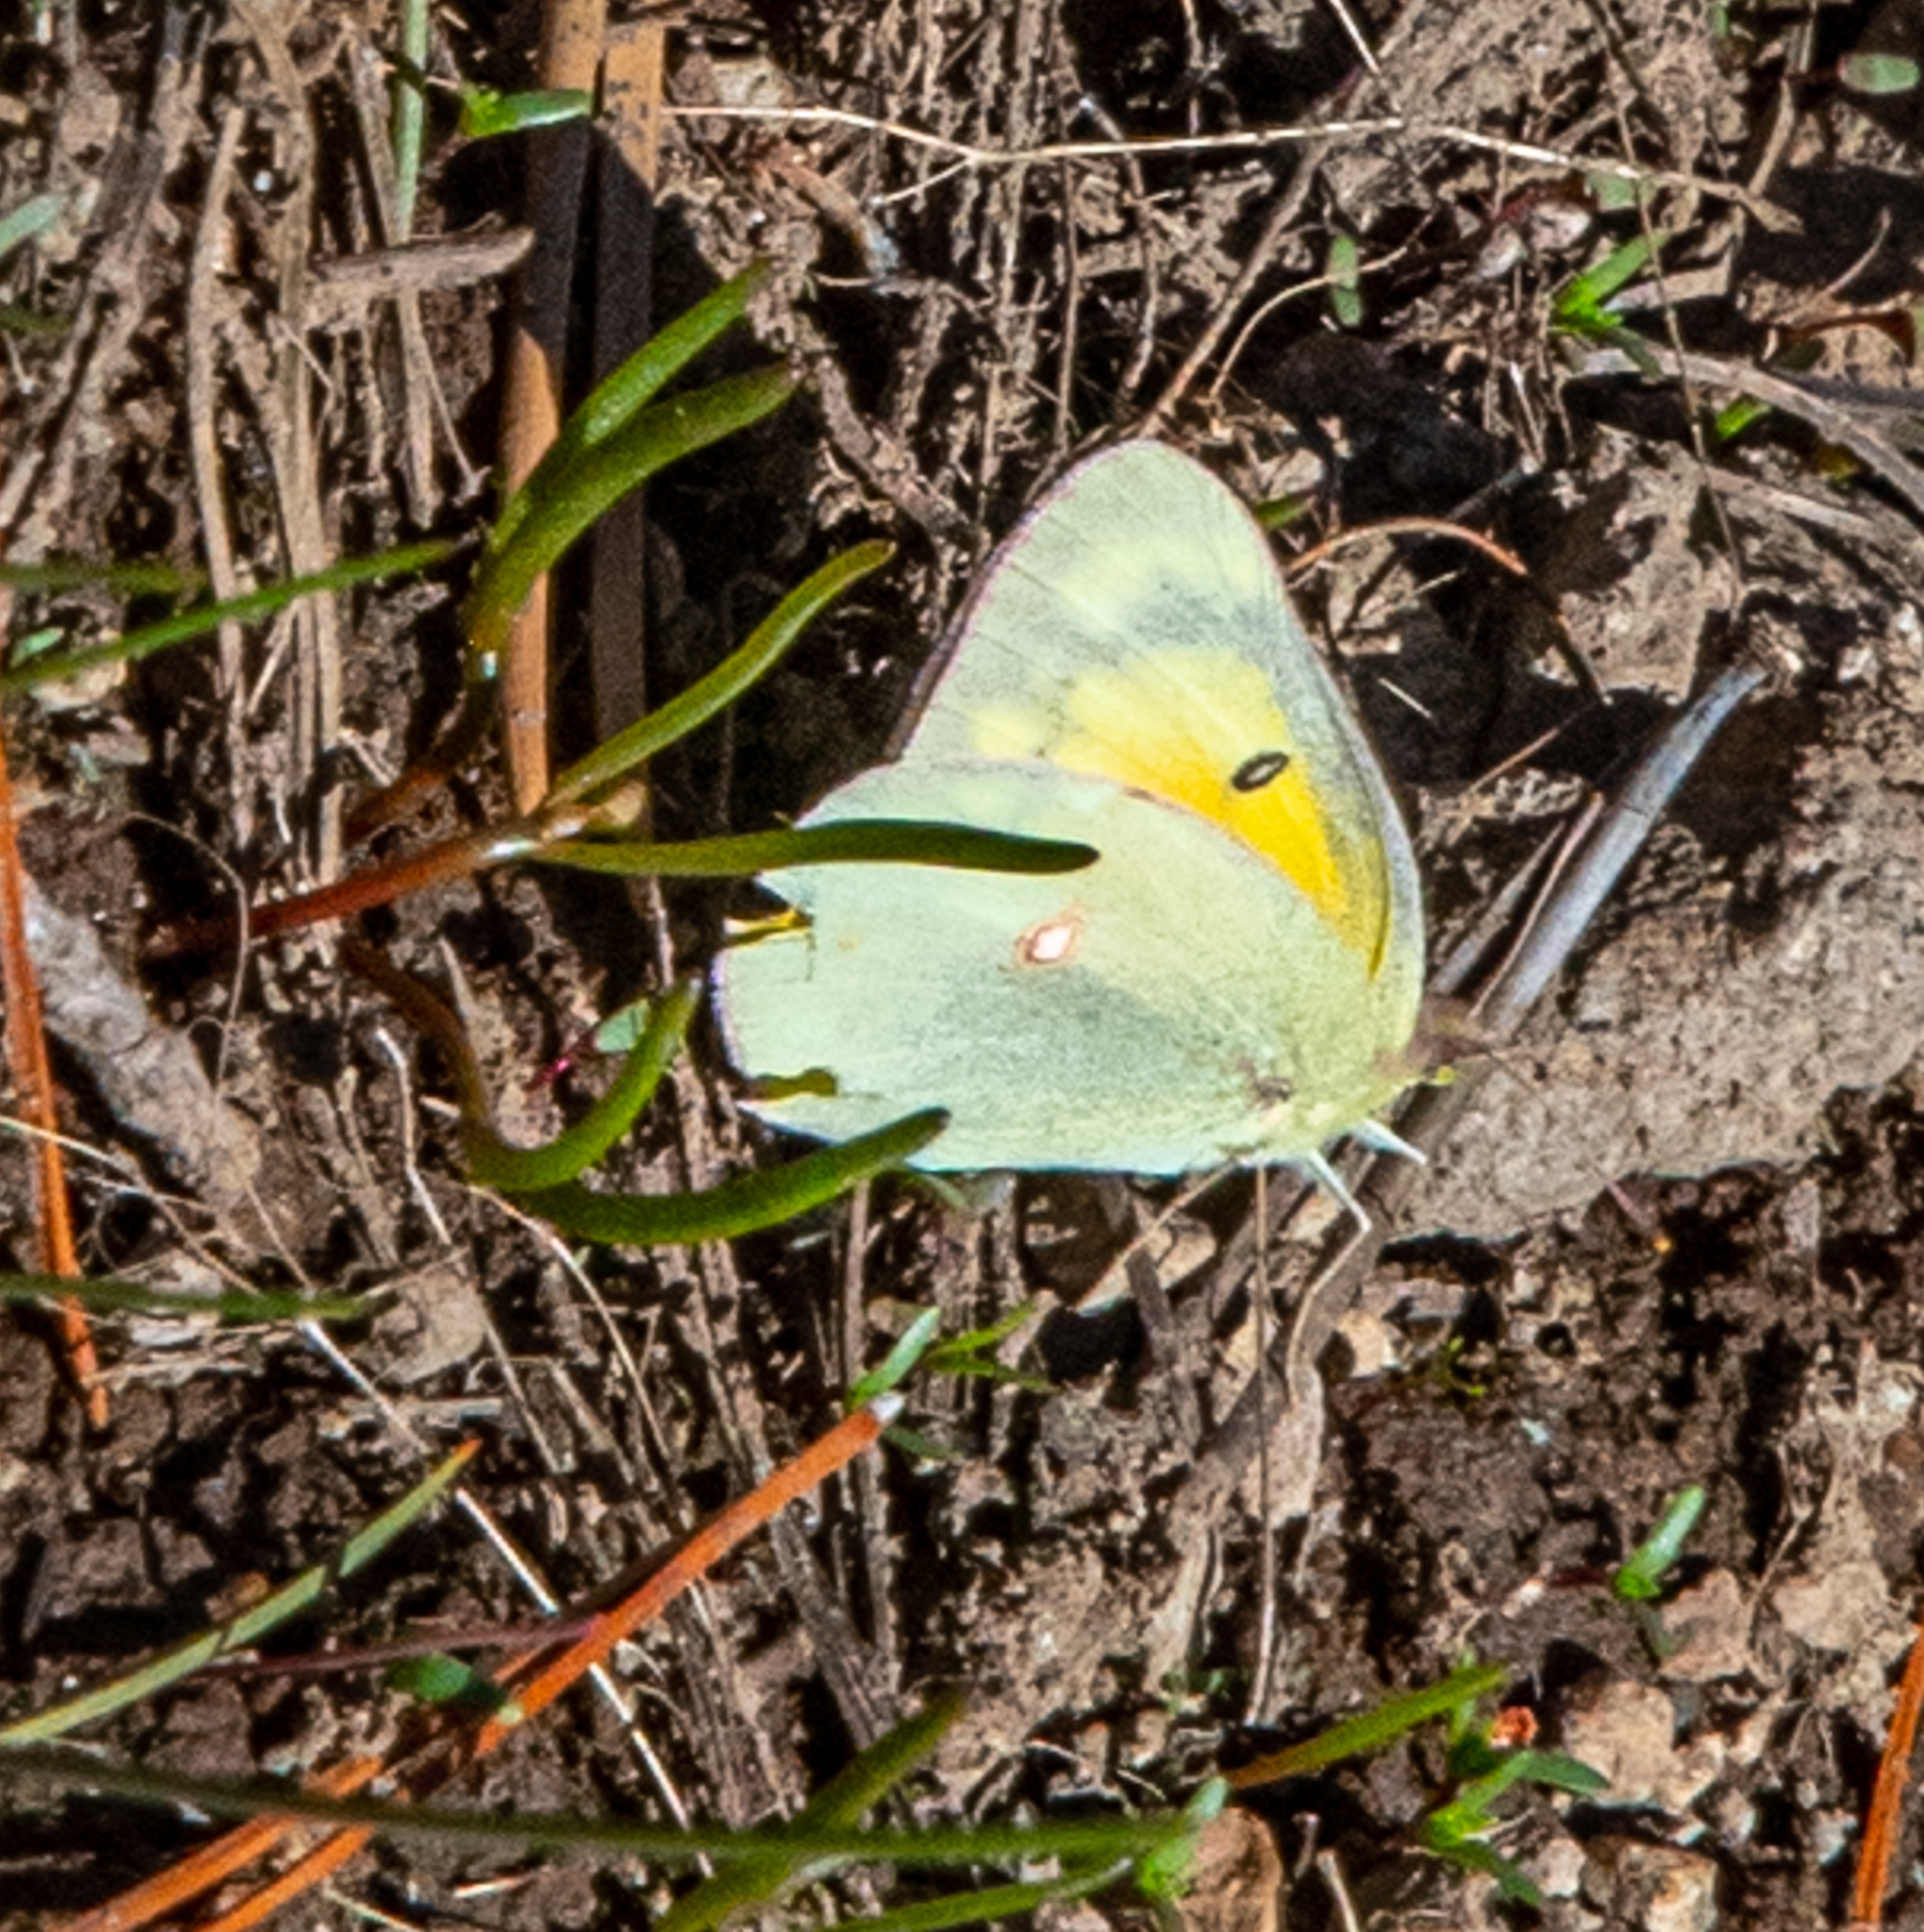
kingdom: Animalia
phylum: Arthropoda
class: Insecta
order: Lepidoptera
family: Pieridae
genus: Colias
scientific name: Colias eurytheme
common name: Alfalfa butterfly
